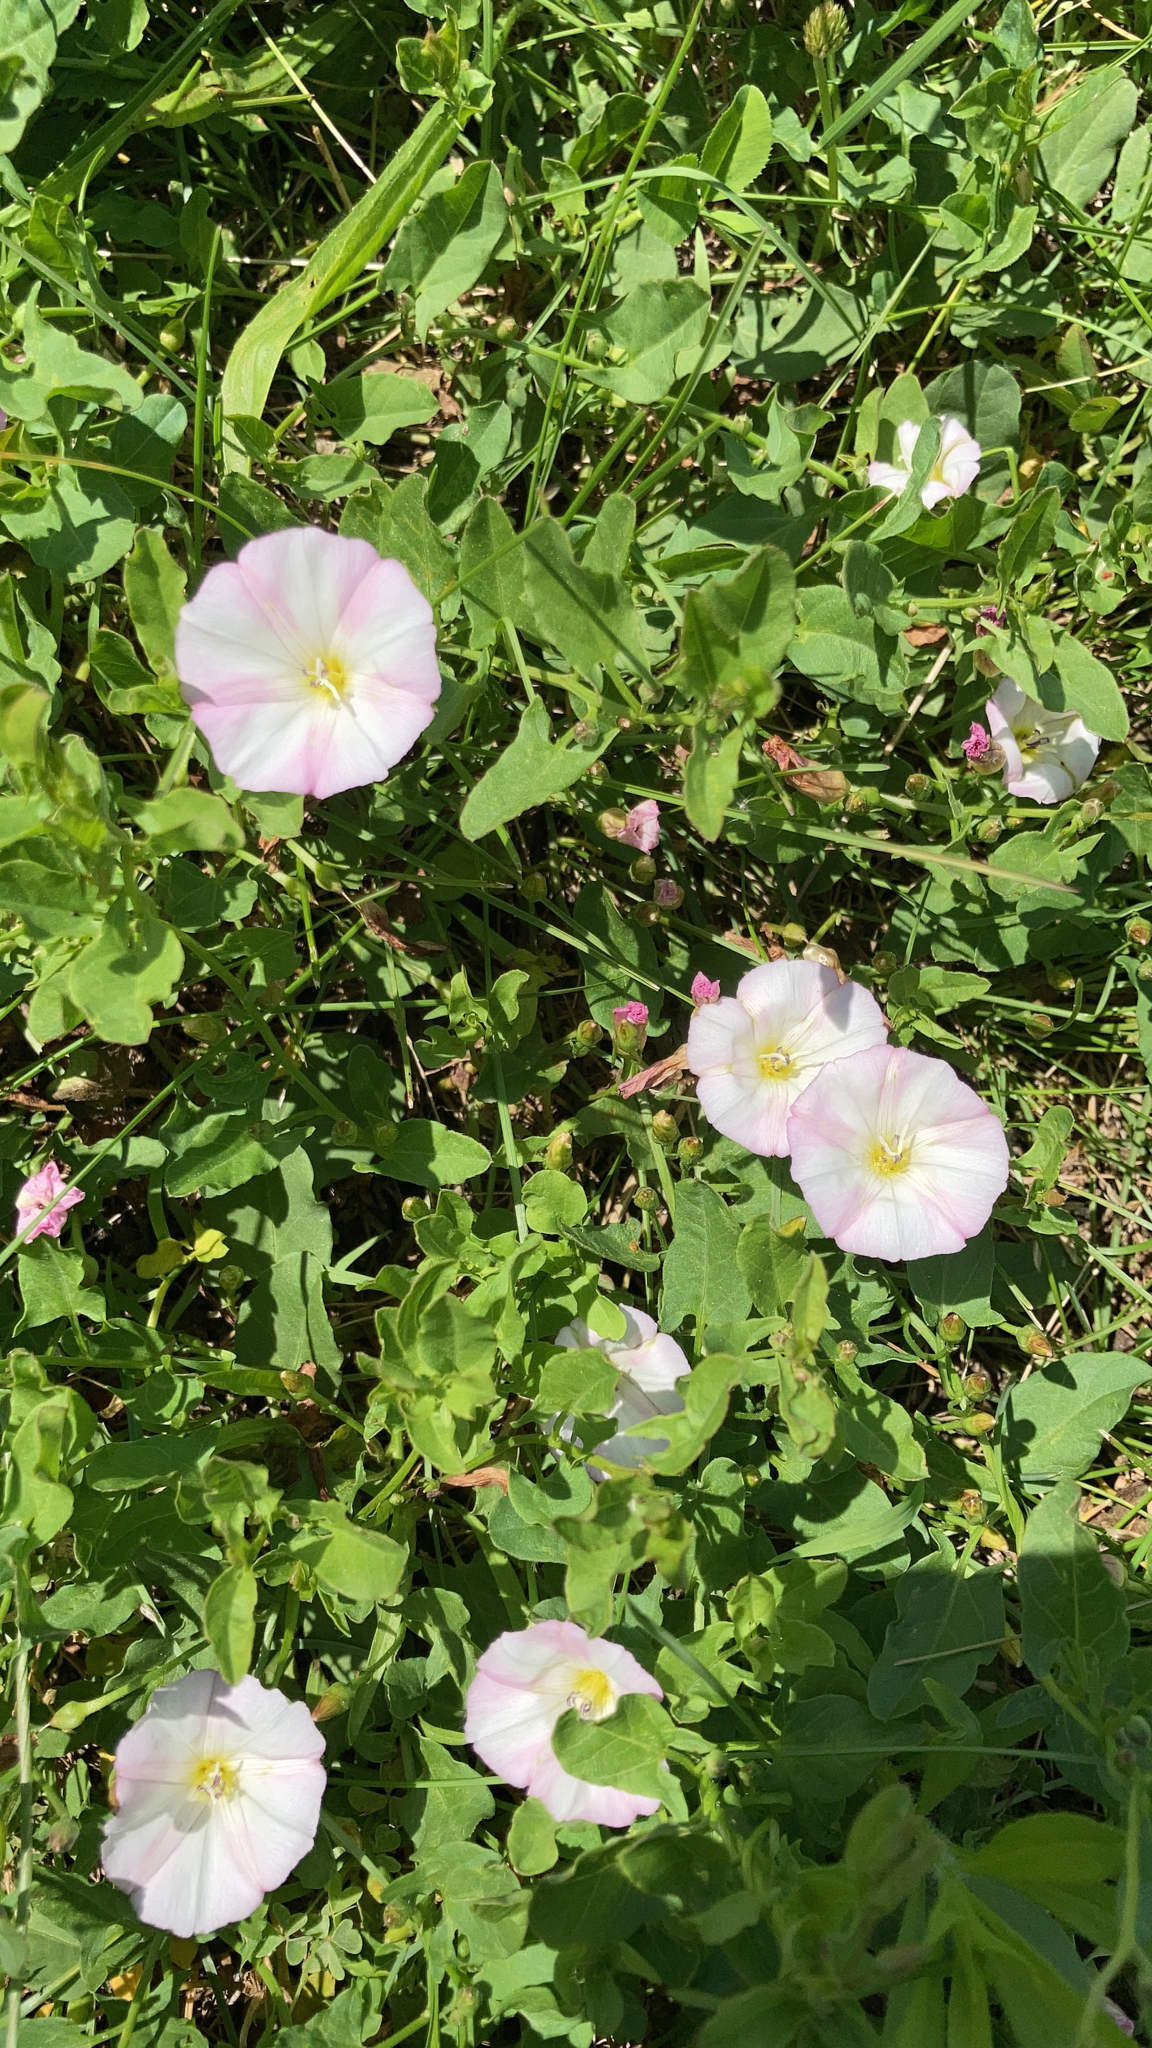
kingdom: Plantae
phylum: Tracheophyta
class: Magnoliopsida
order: Solanales
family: Convolvulaceae
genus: Convolvulus
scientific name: Convolvulus arvensis
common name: Field bindweed
